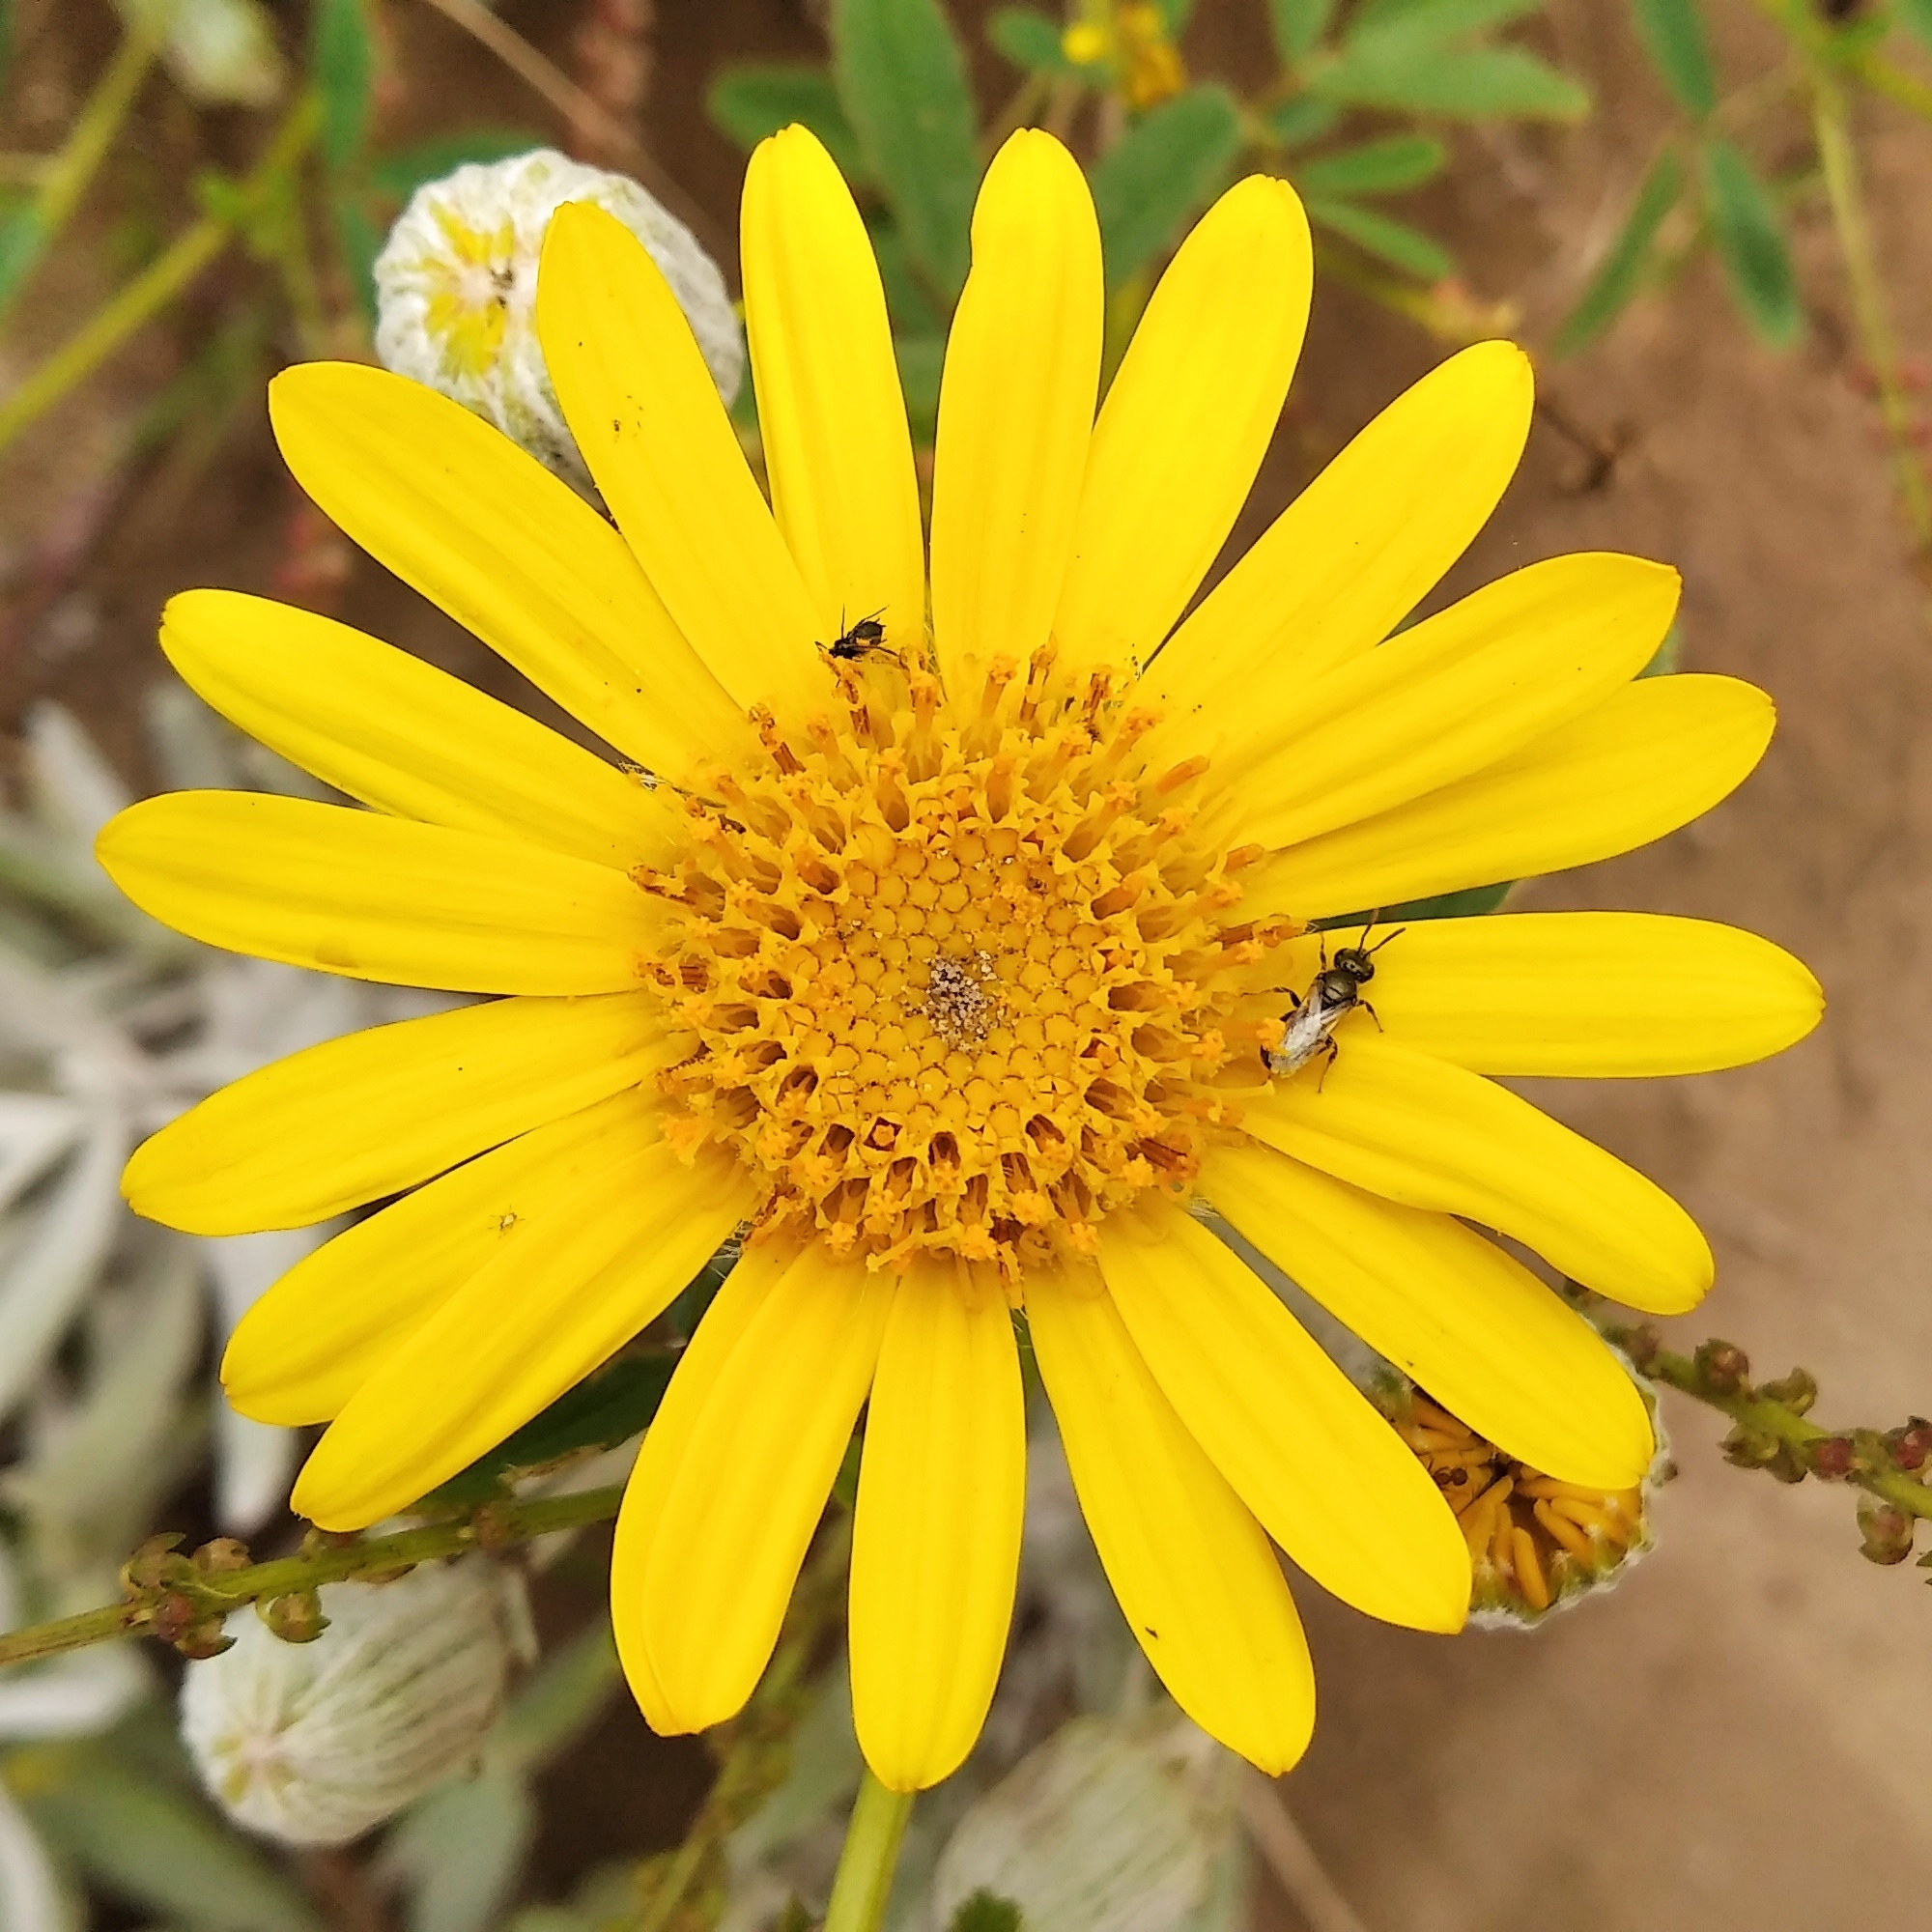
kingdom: Plantae
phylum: Tracheophyta
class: Magnoliopsida
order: Asterales
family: Asteraceae
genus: Senecio
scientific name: Senecio crassiflorus
